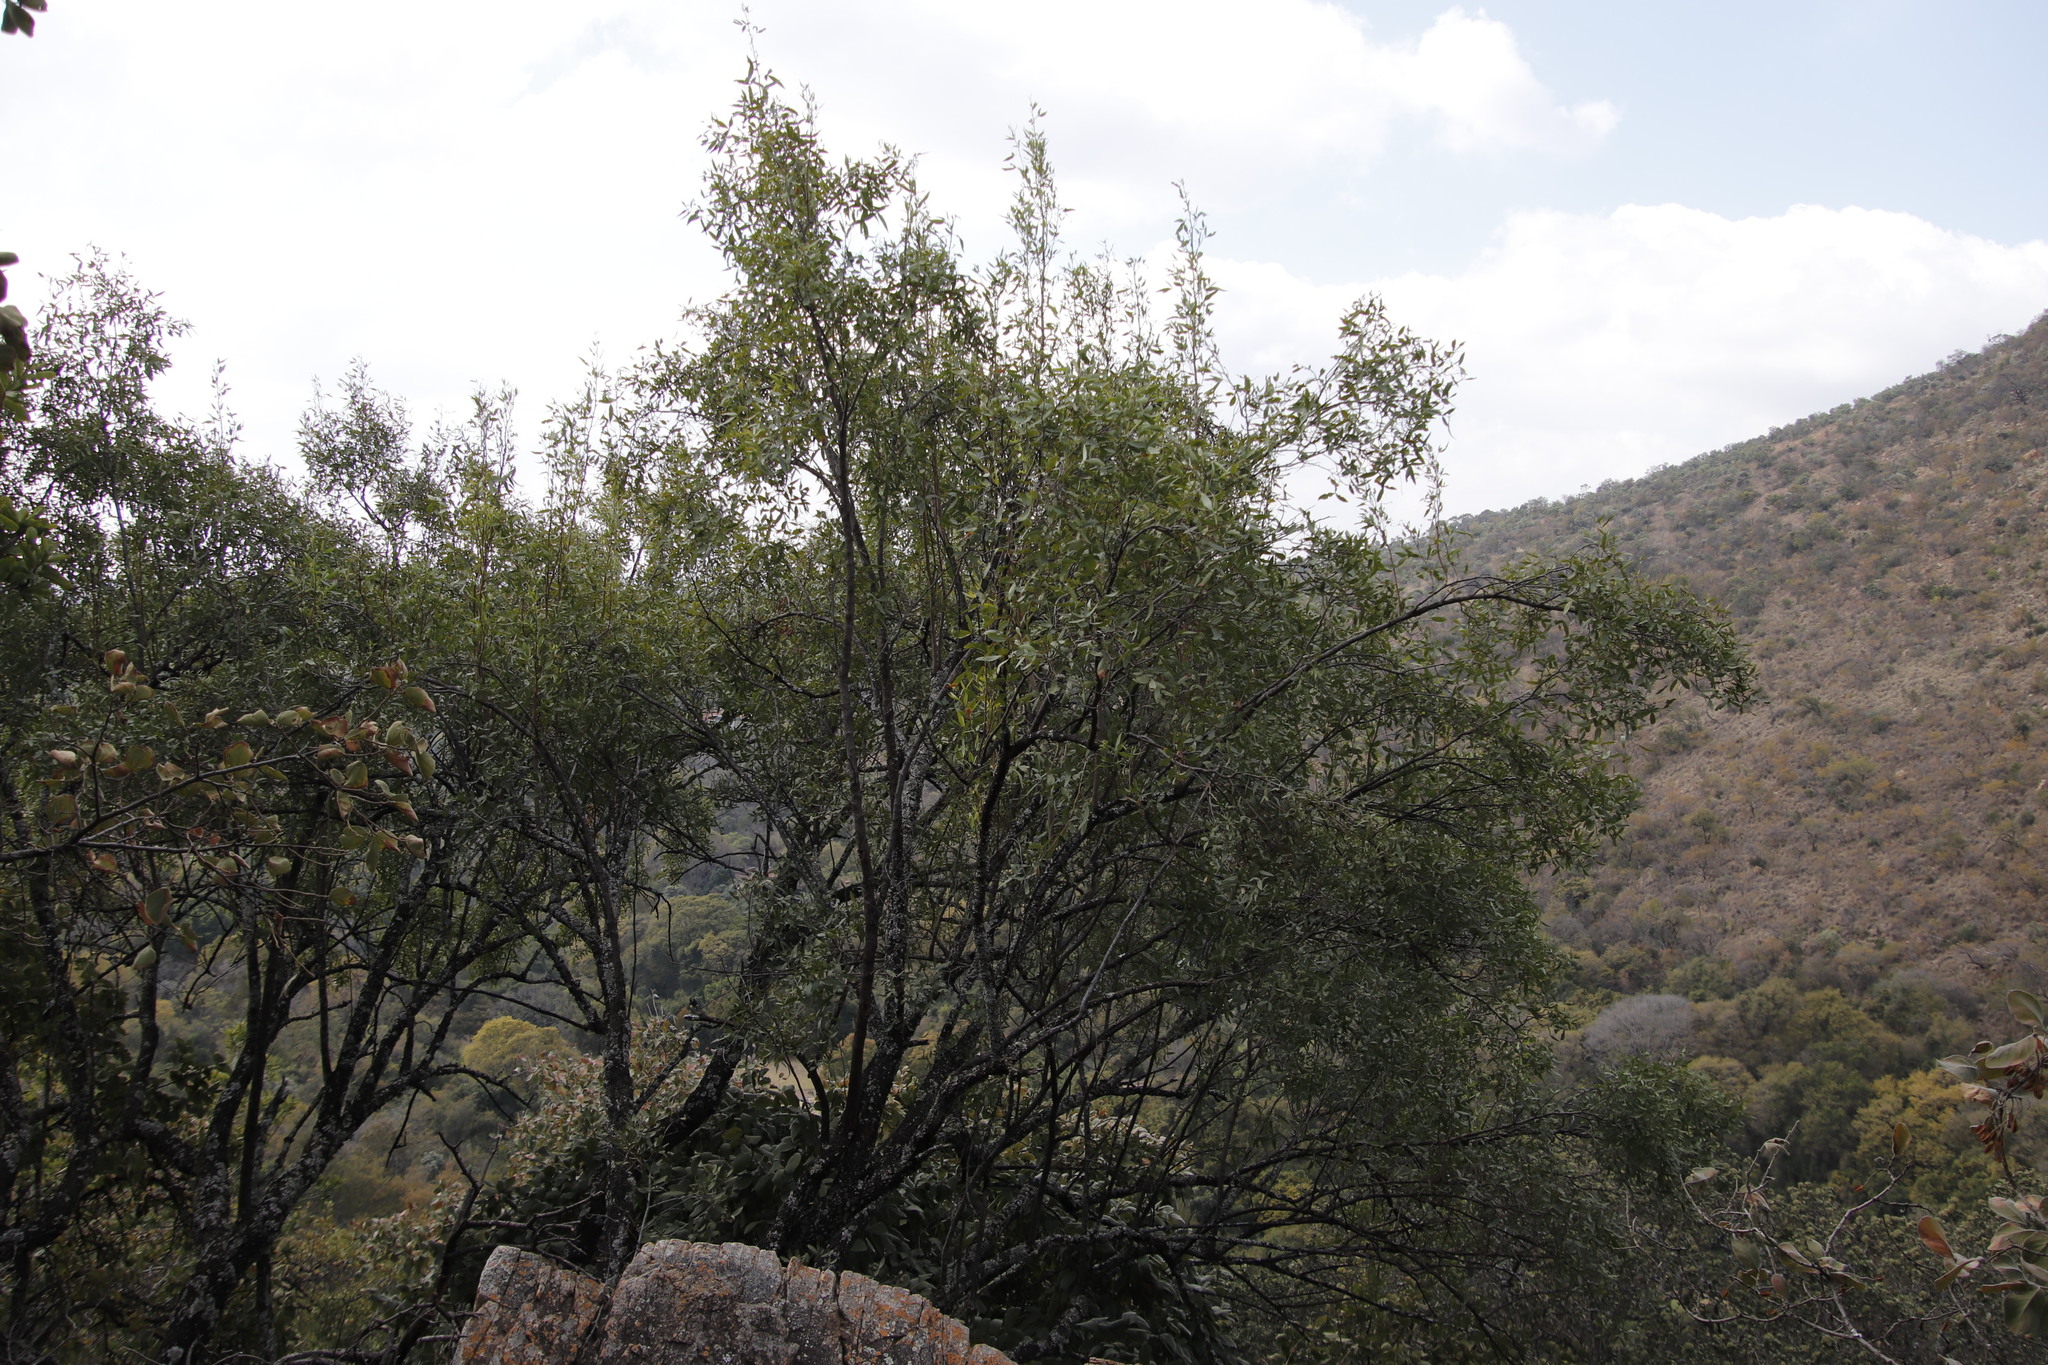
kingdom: Plantae
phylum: Tracheophyta
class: Magnoliopsida
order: Sapindales
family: Anacardiaceae
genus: Searsia
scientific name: Searsia leptodictya
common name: Mountain karee
